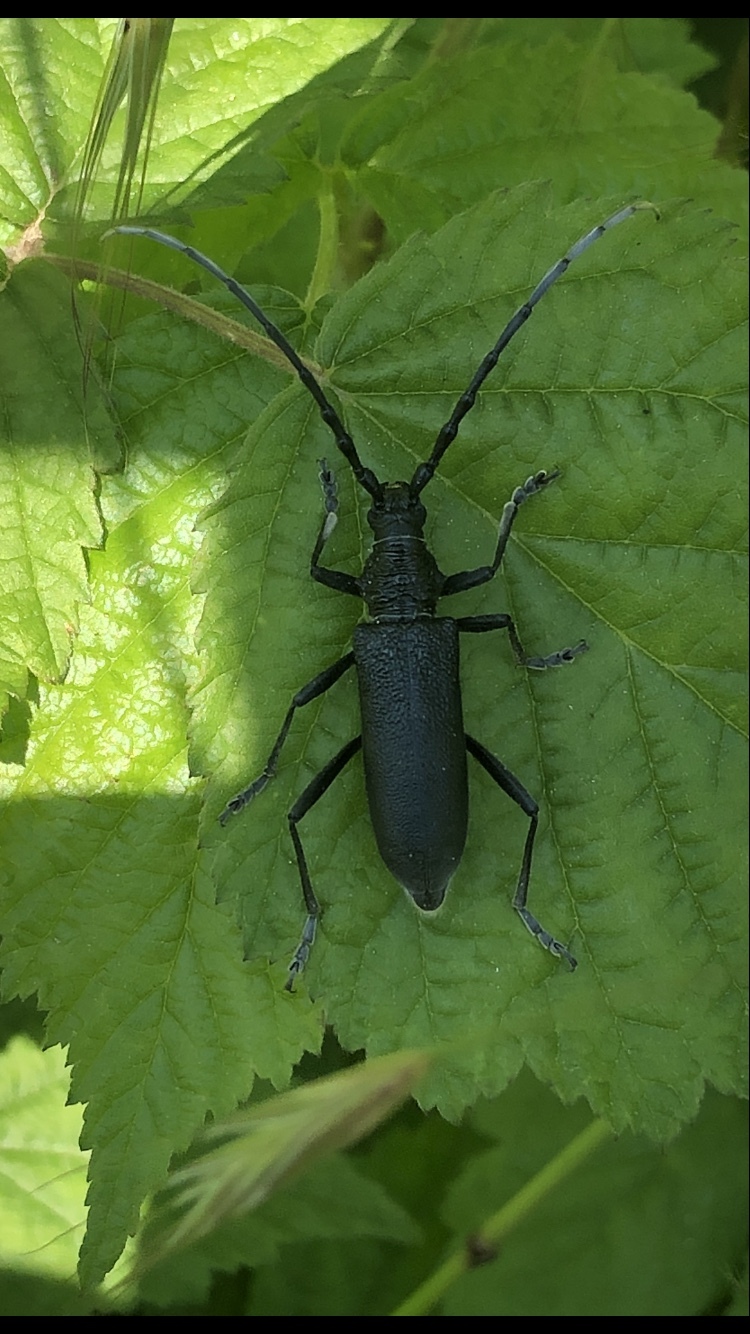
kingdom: Animalia
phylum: Arthropoda
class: Insecta
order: Coleoptera
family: Cerambycidae
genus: Cerambyx
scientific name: Cerambyx scopolii
